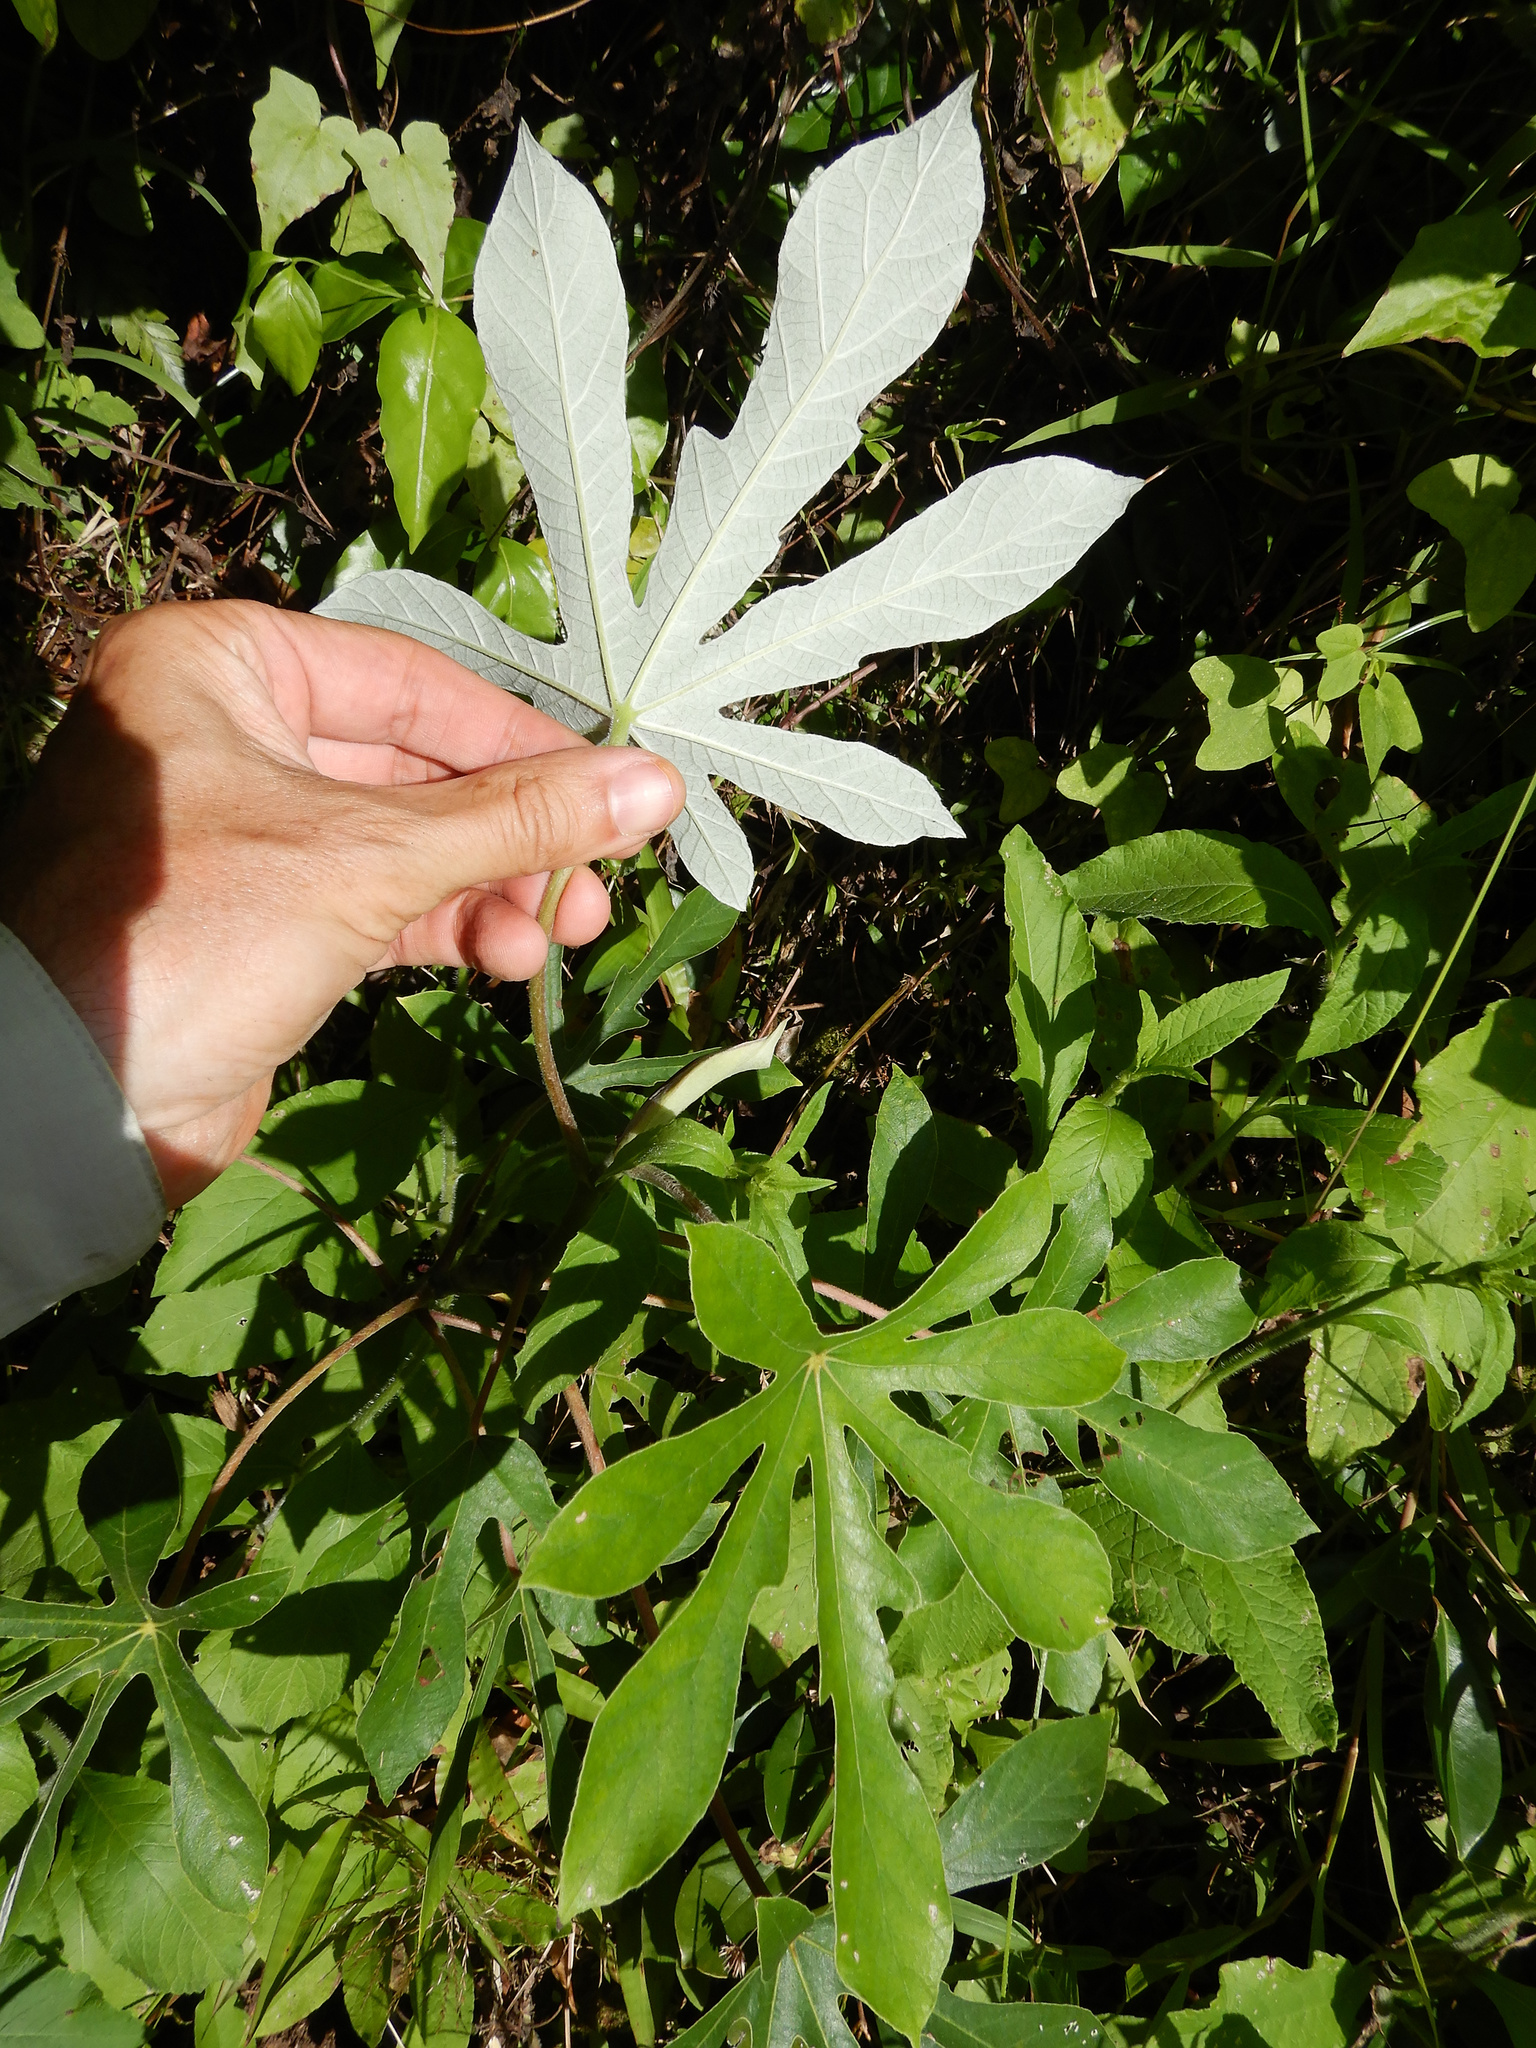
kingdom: Plantae
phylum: Tracheophyta
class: Magnoliopsida
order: Rosales
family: Urticaceae
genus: Cecropia
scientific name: Cecropia pachystachya
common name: Ambay pumpwood
